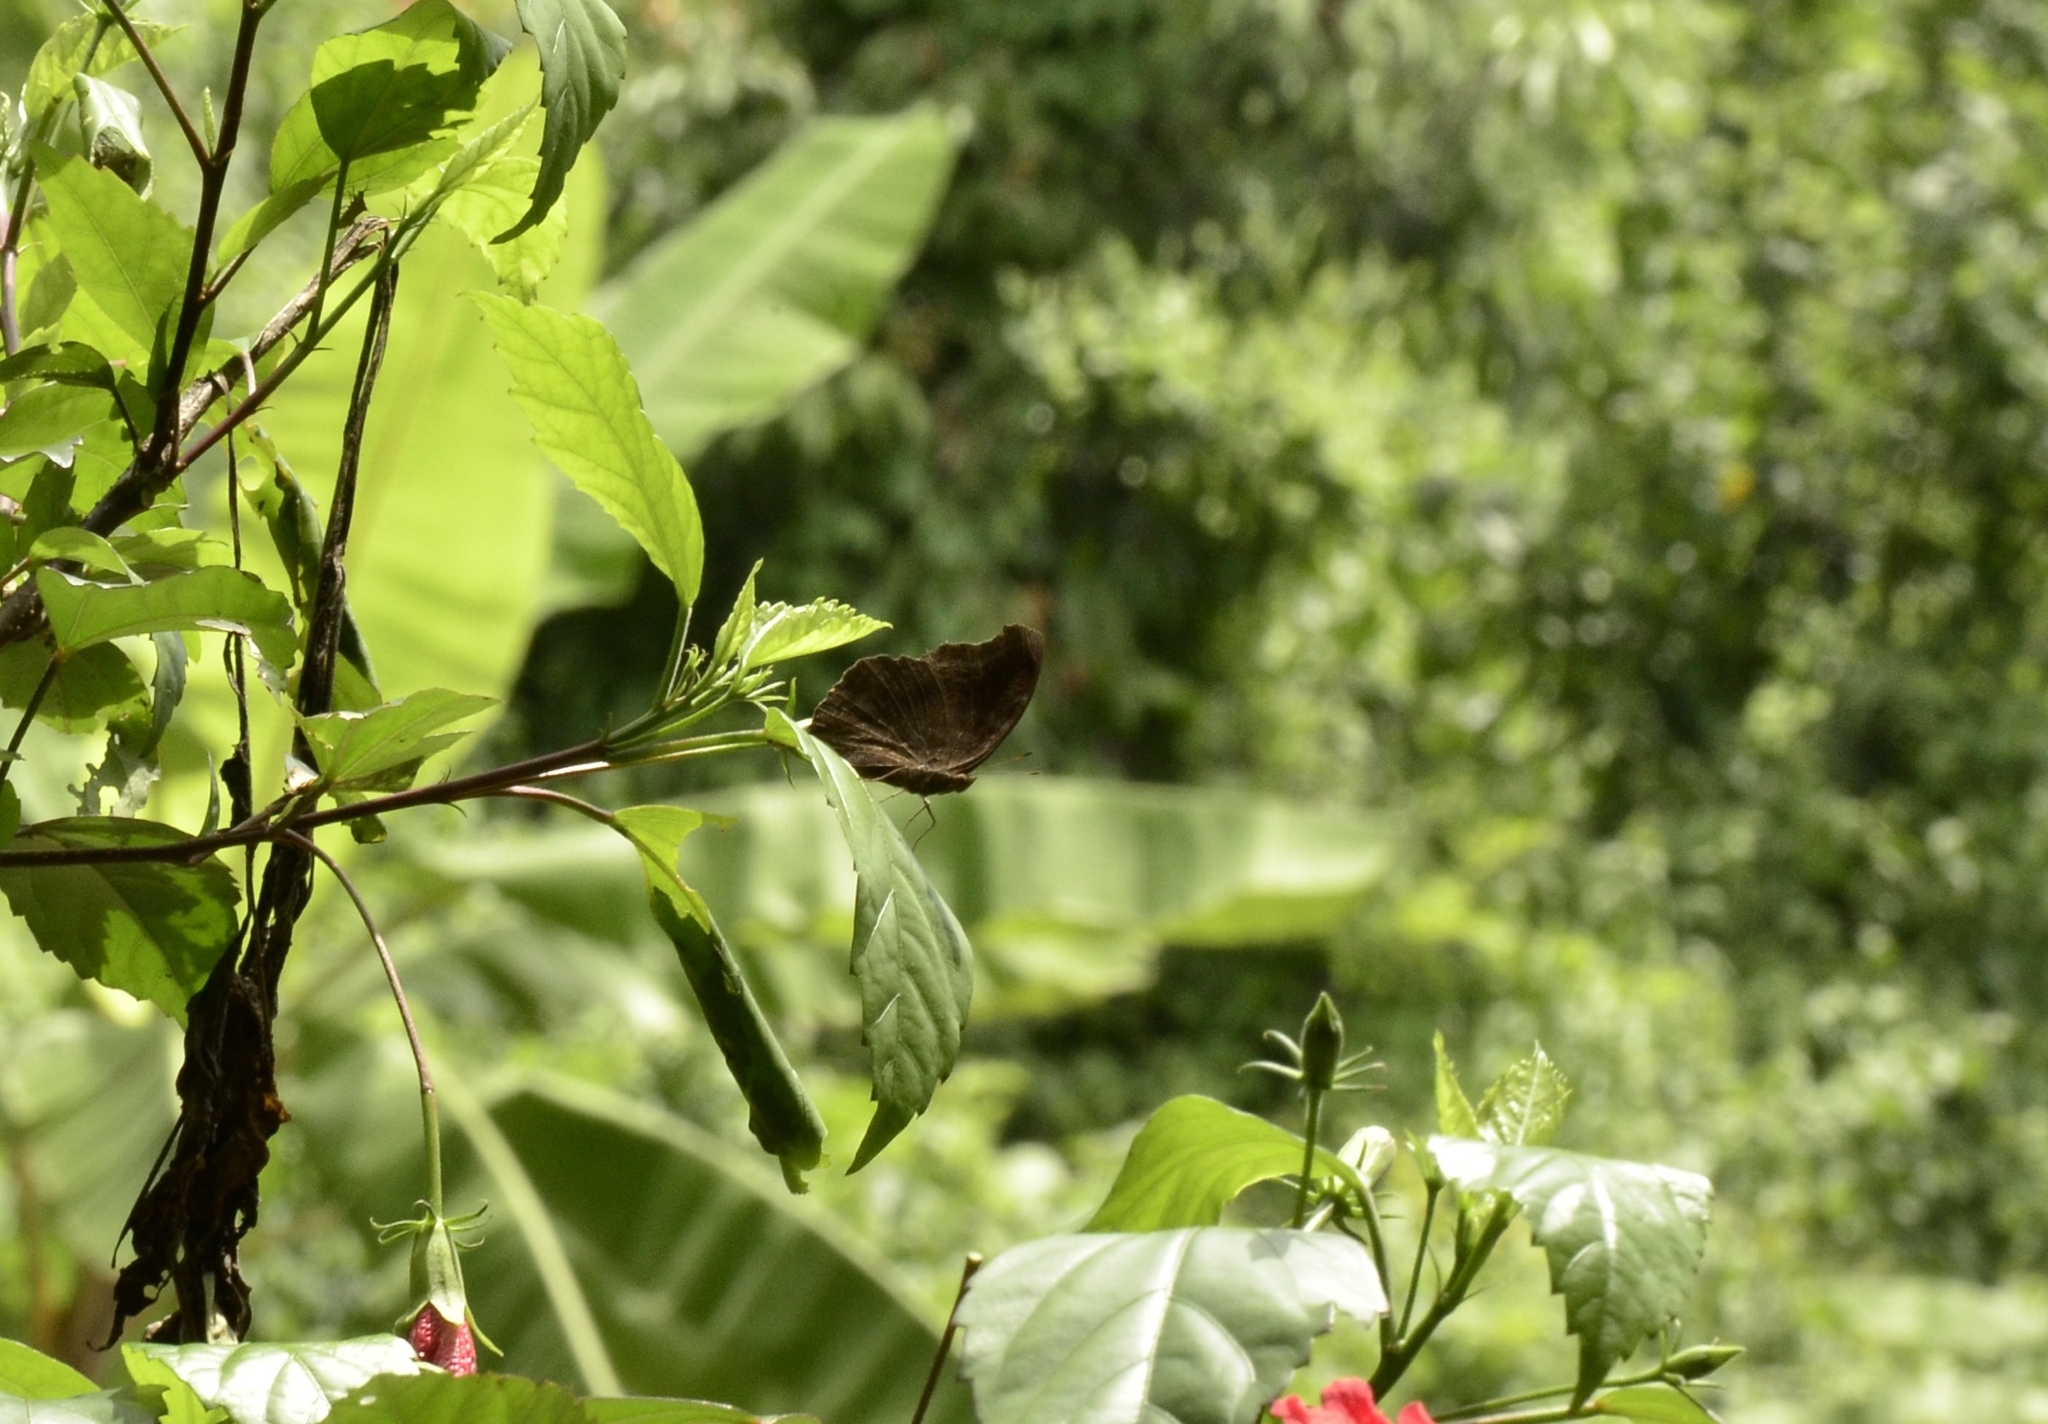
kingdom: Animalia
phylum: Arthropoda
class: Insecta
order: Lepidoptera
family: Nymphalidae
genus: Junonia
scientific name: Junonia iphita
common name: Chocolate pansy
